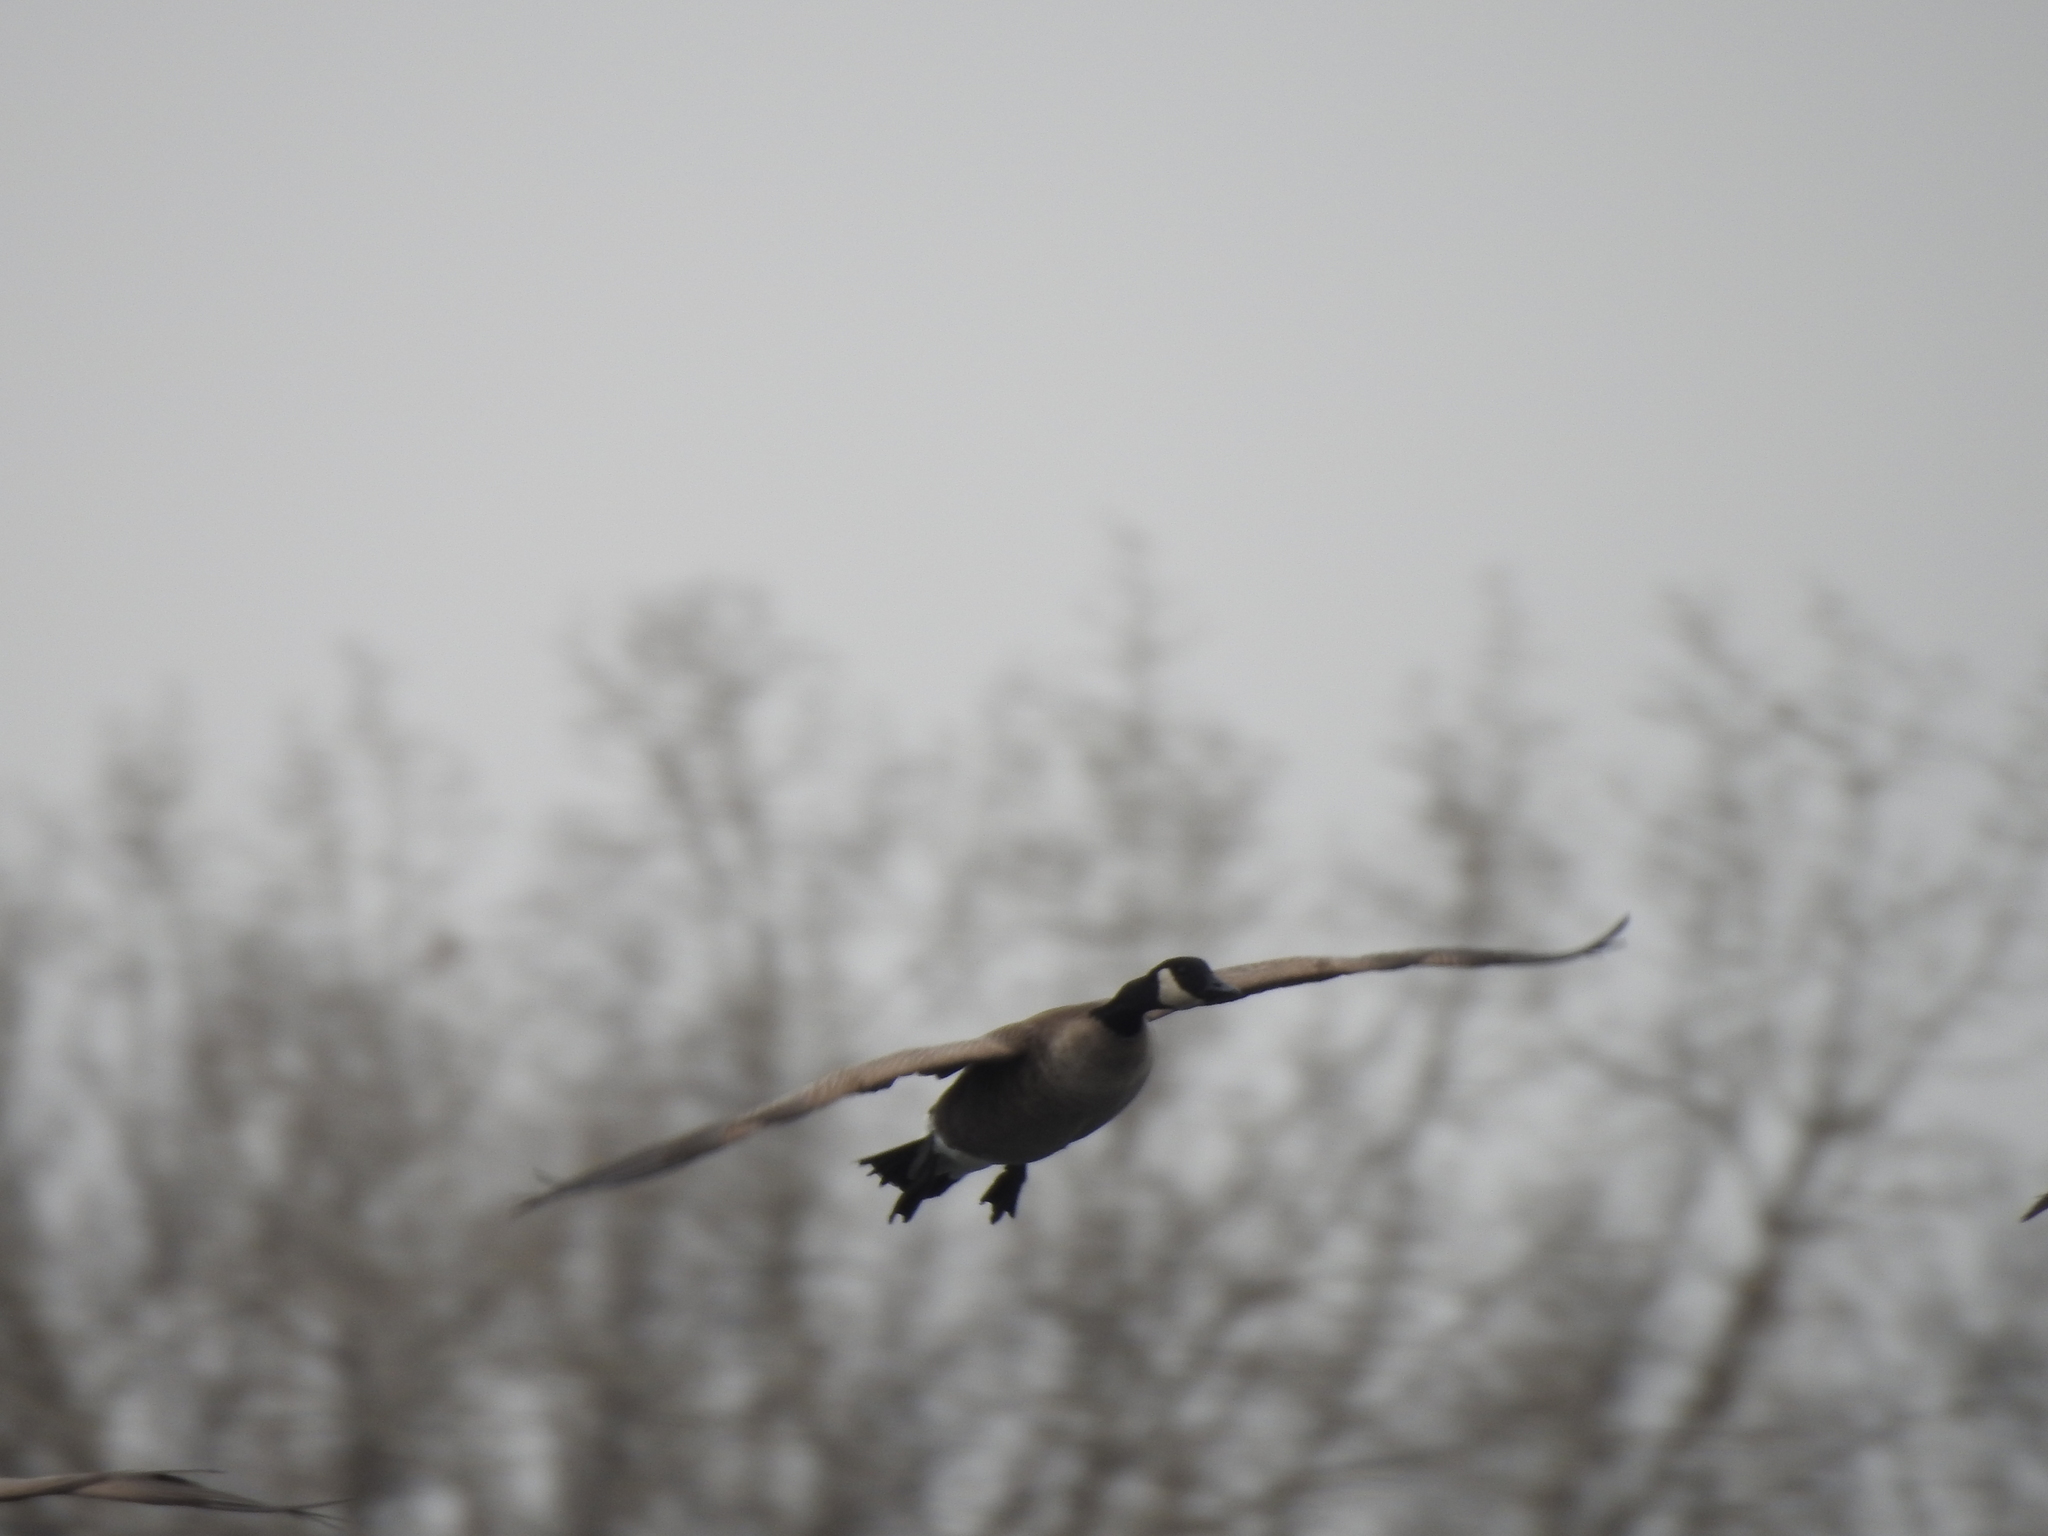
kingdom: Animalia
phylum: Chordata
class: Aves
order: Anseriformes
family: Anatidae
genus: Branta
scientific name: Branta canadensis
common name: Canada goose
